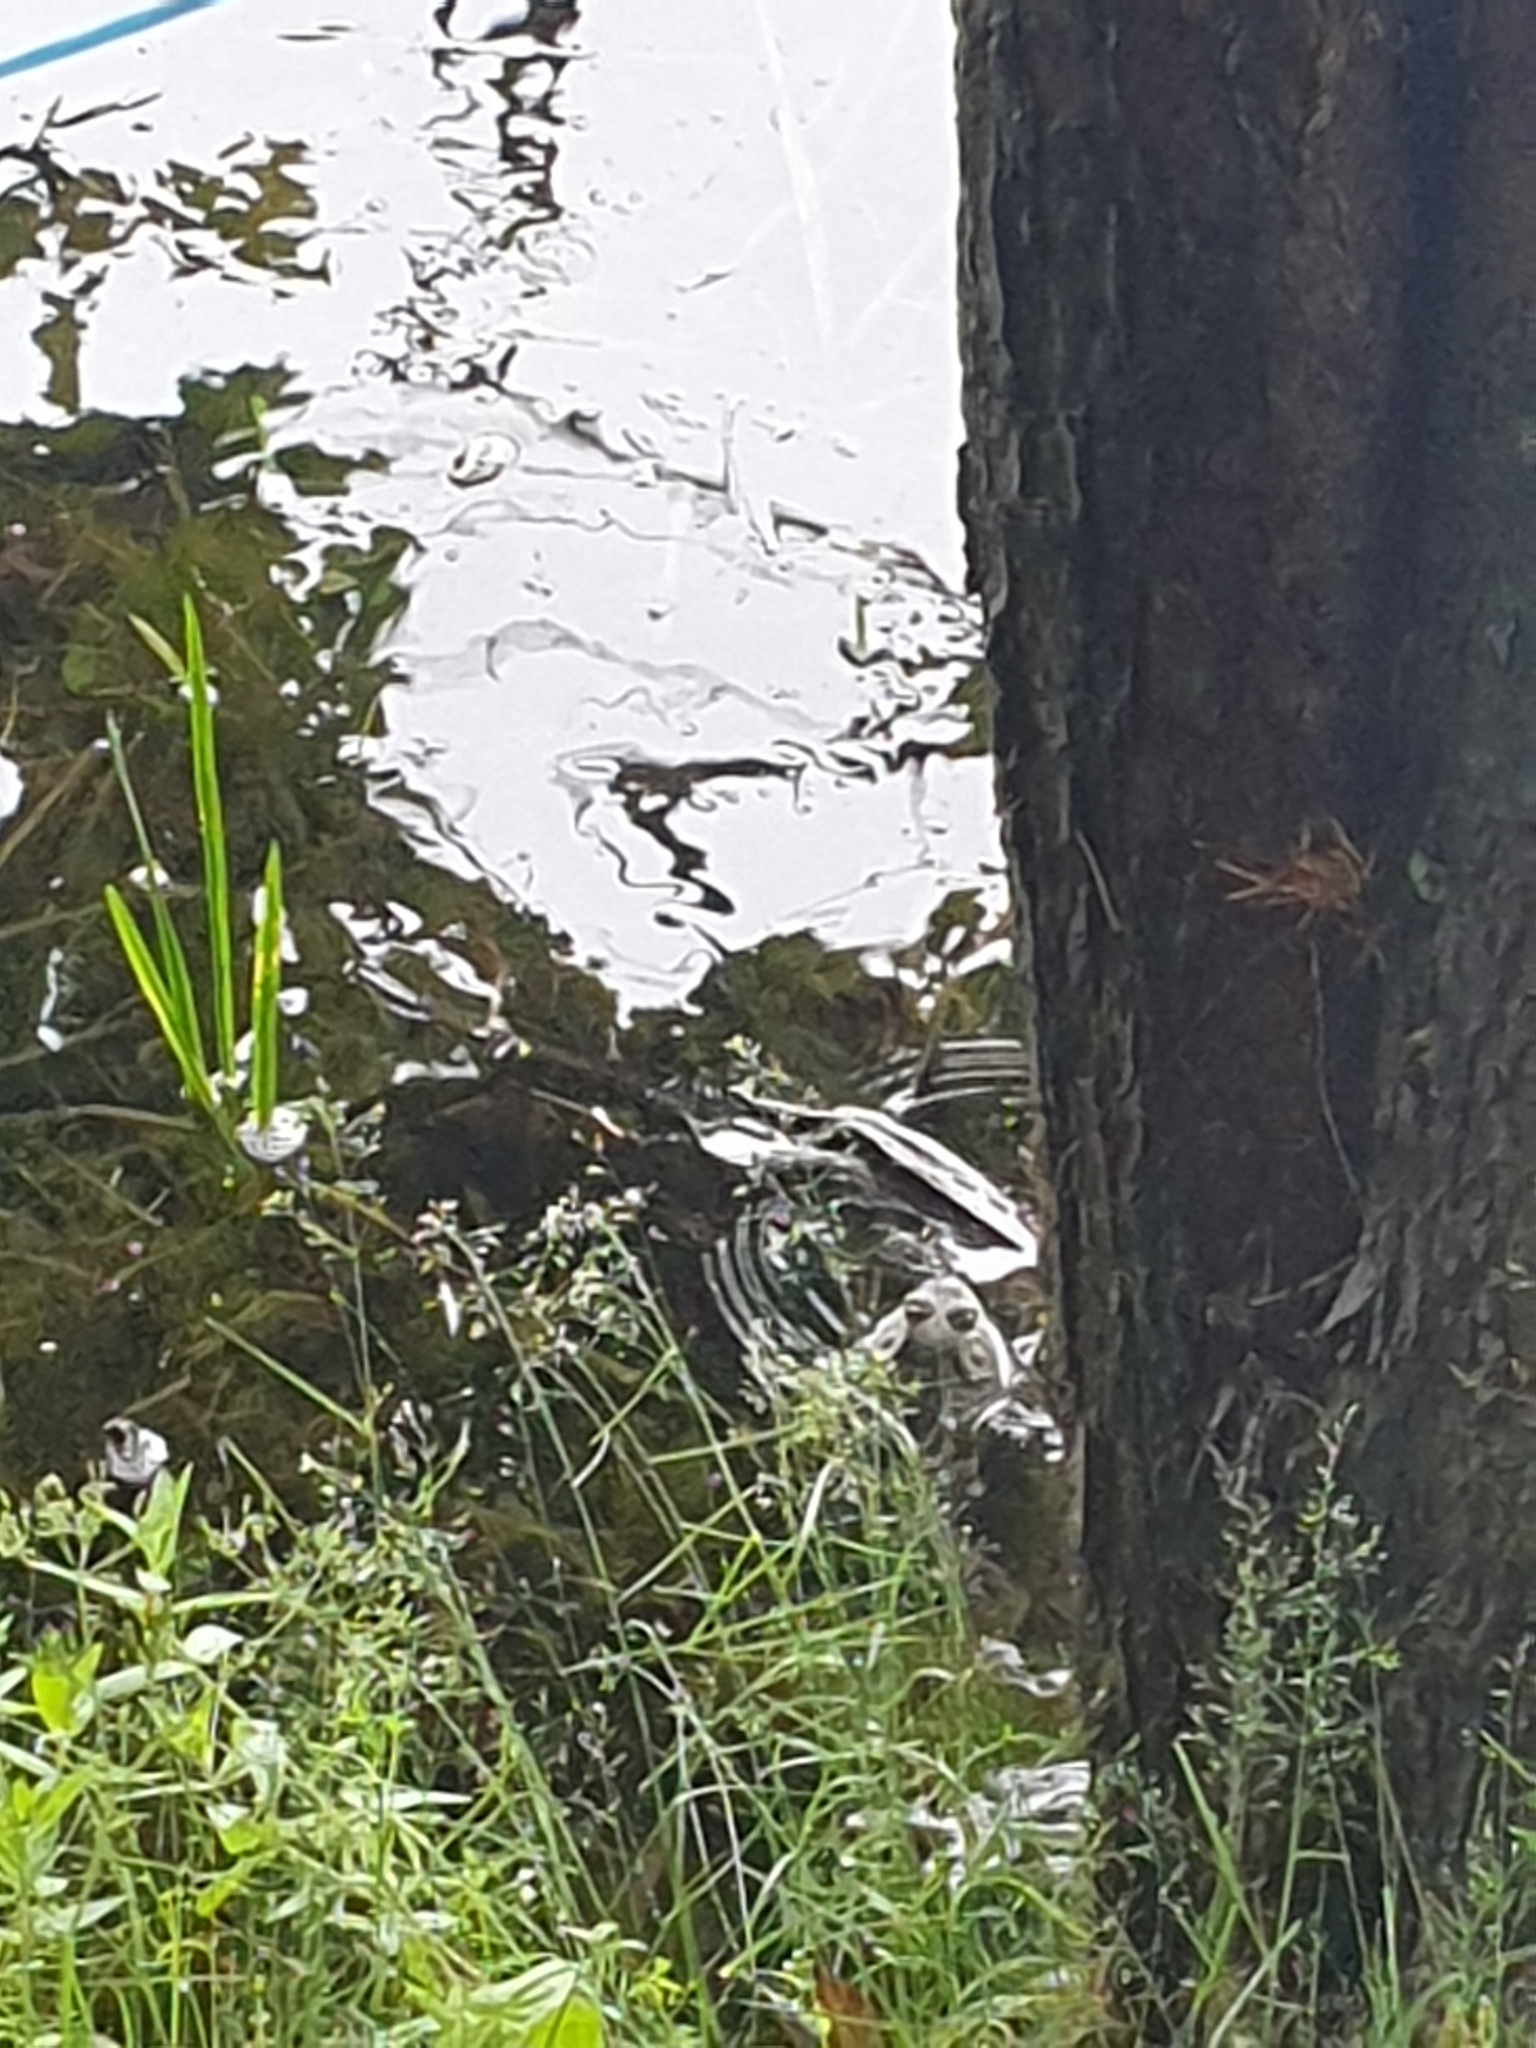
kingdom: Animalia
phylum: Chordata
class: Amphibia
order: Anura
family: Ranidae
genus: Lithobates
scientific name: Lithobates catesbeianus
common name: American bullfrog
